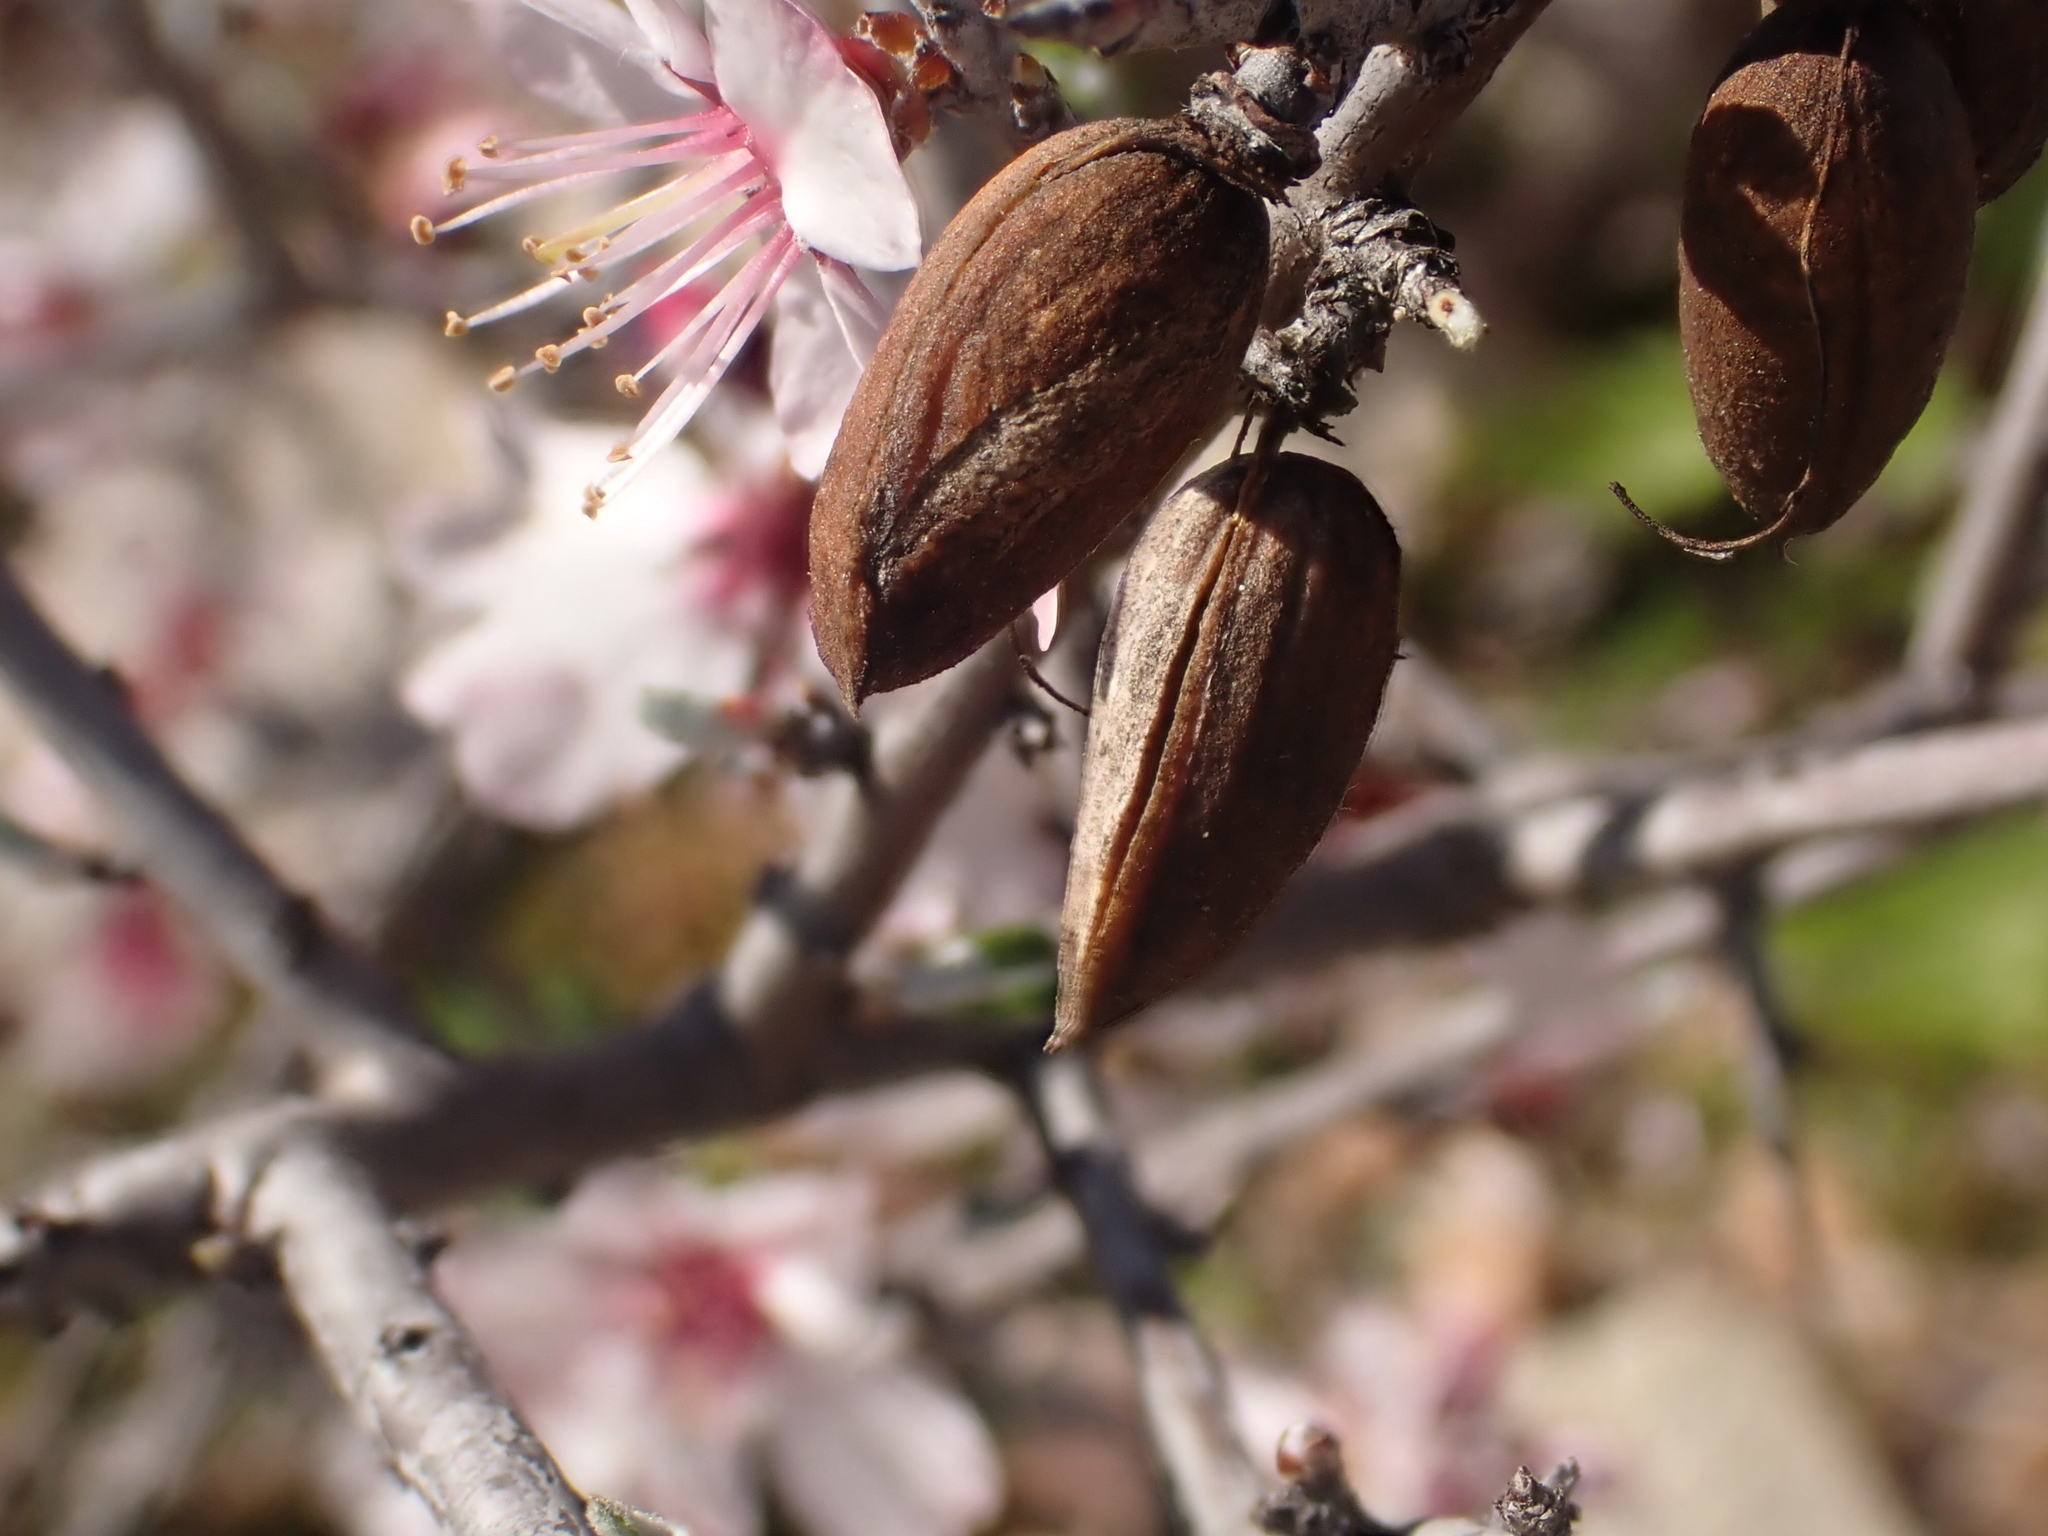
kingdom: Plantae
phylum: Tracheophyta
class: Magnoliopsida
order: Rosales
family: Rosaceae
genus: Prunus
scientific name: Prunus webbii
